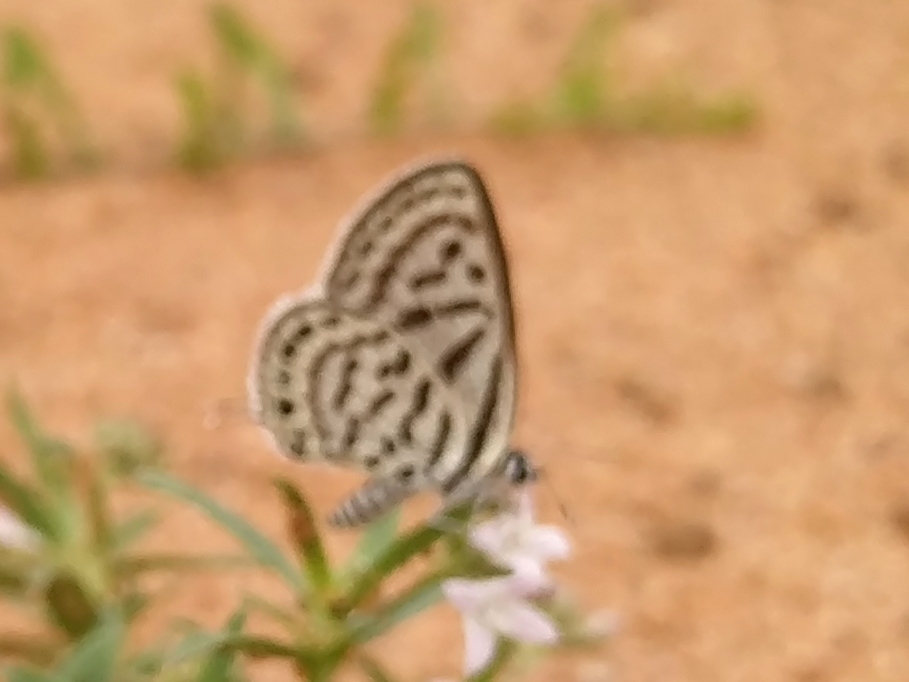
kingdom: Animalia
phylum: Arthropoda
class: Insecta
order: Lepidoptera
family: Lycaenidae
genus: Tarucus
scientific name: Tarucus balkanica
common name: Little tiger blue
